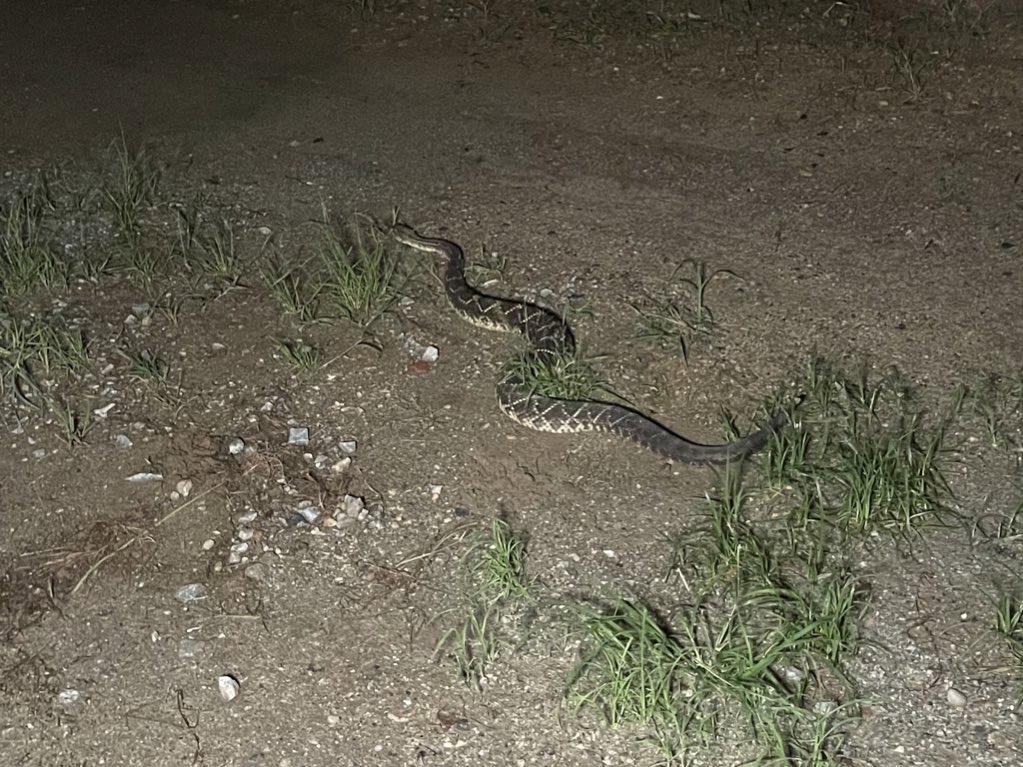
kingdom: Animalia
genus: Crotalus
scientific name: Crotalus durissus
